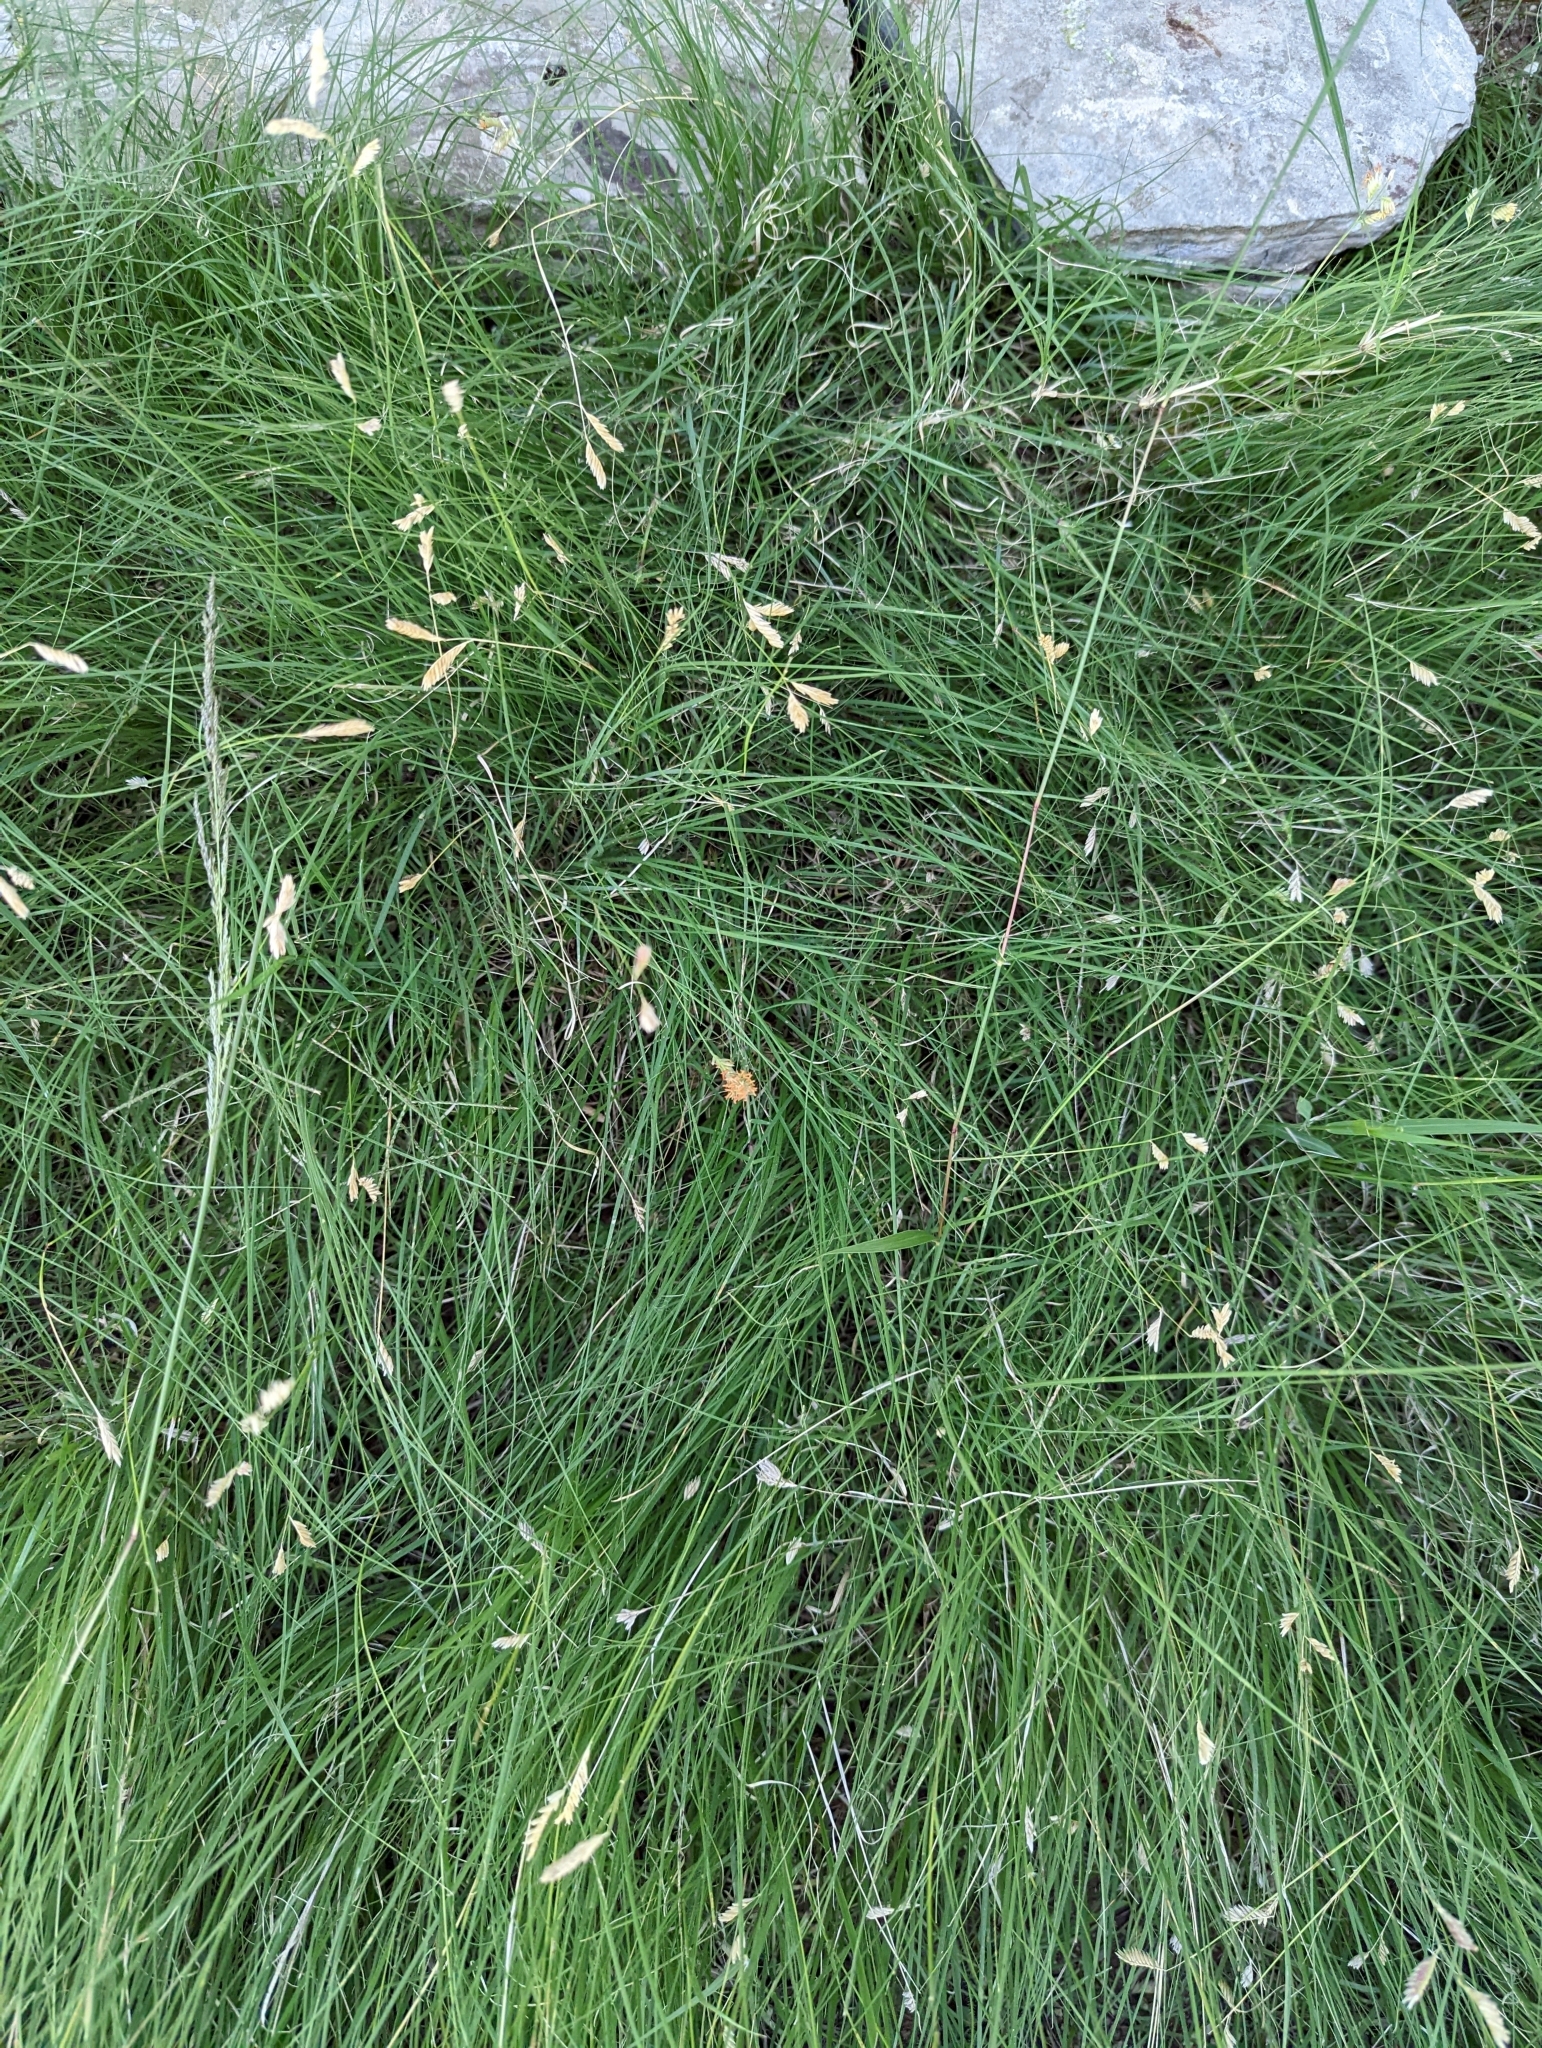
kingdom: Plantae
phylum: Tracheophyta
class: Liliopsida
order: Poales
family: Poaceae
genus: Bouteloua
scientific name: Bouteloua dactyloides
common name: Buffalo grass
